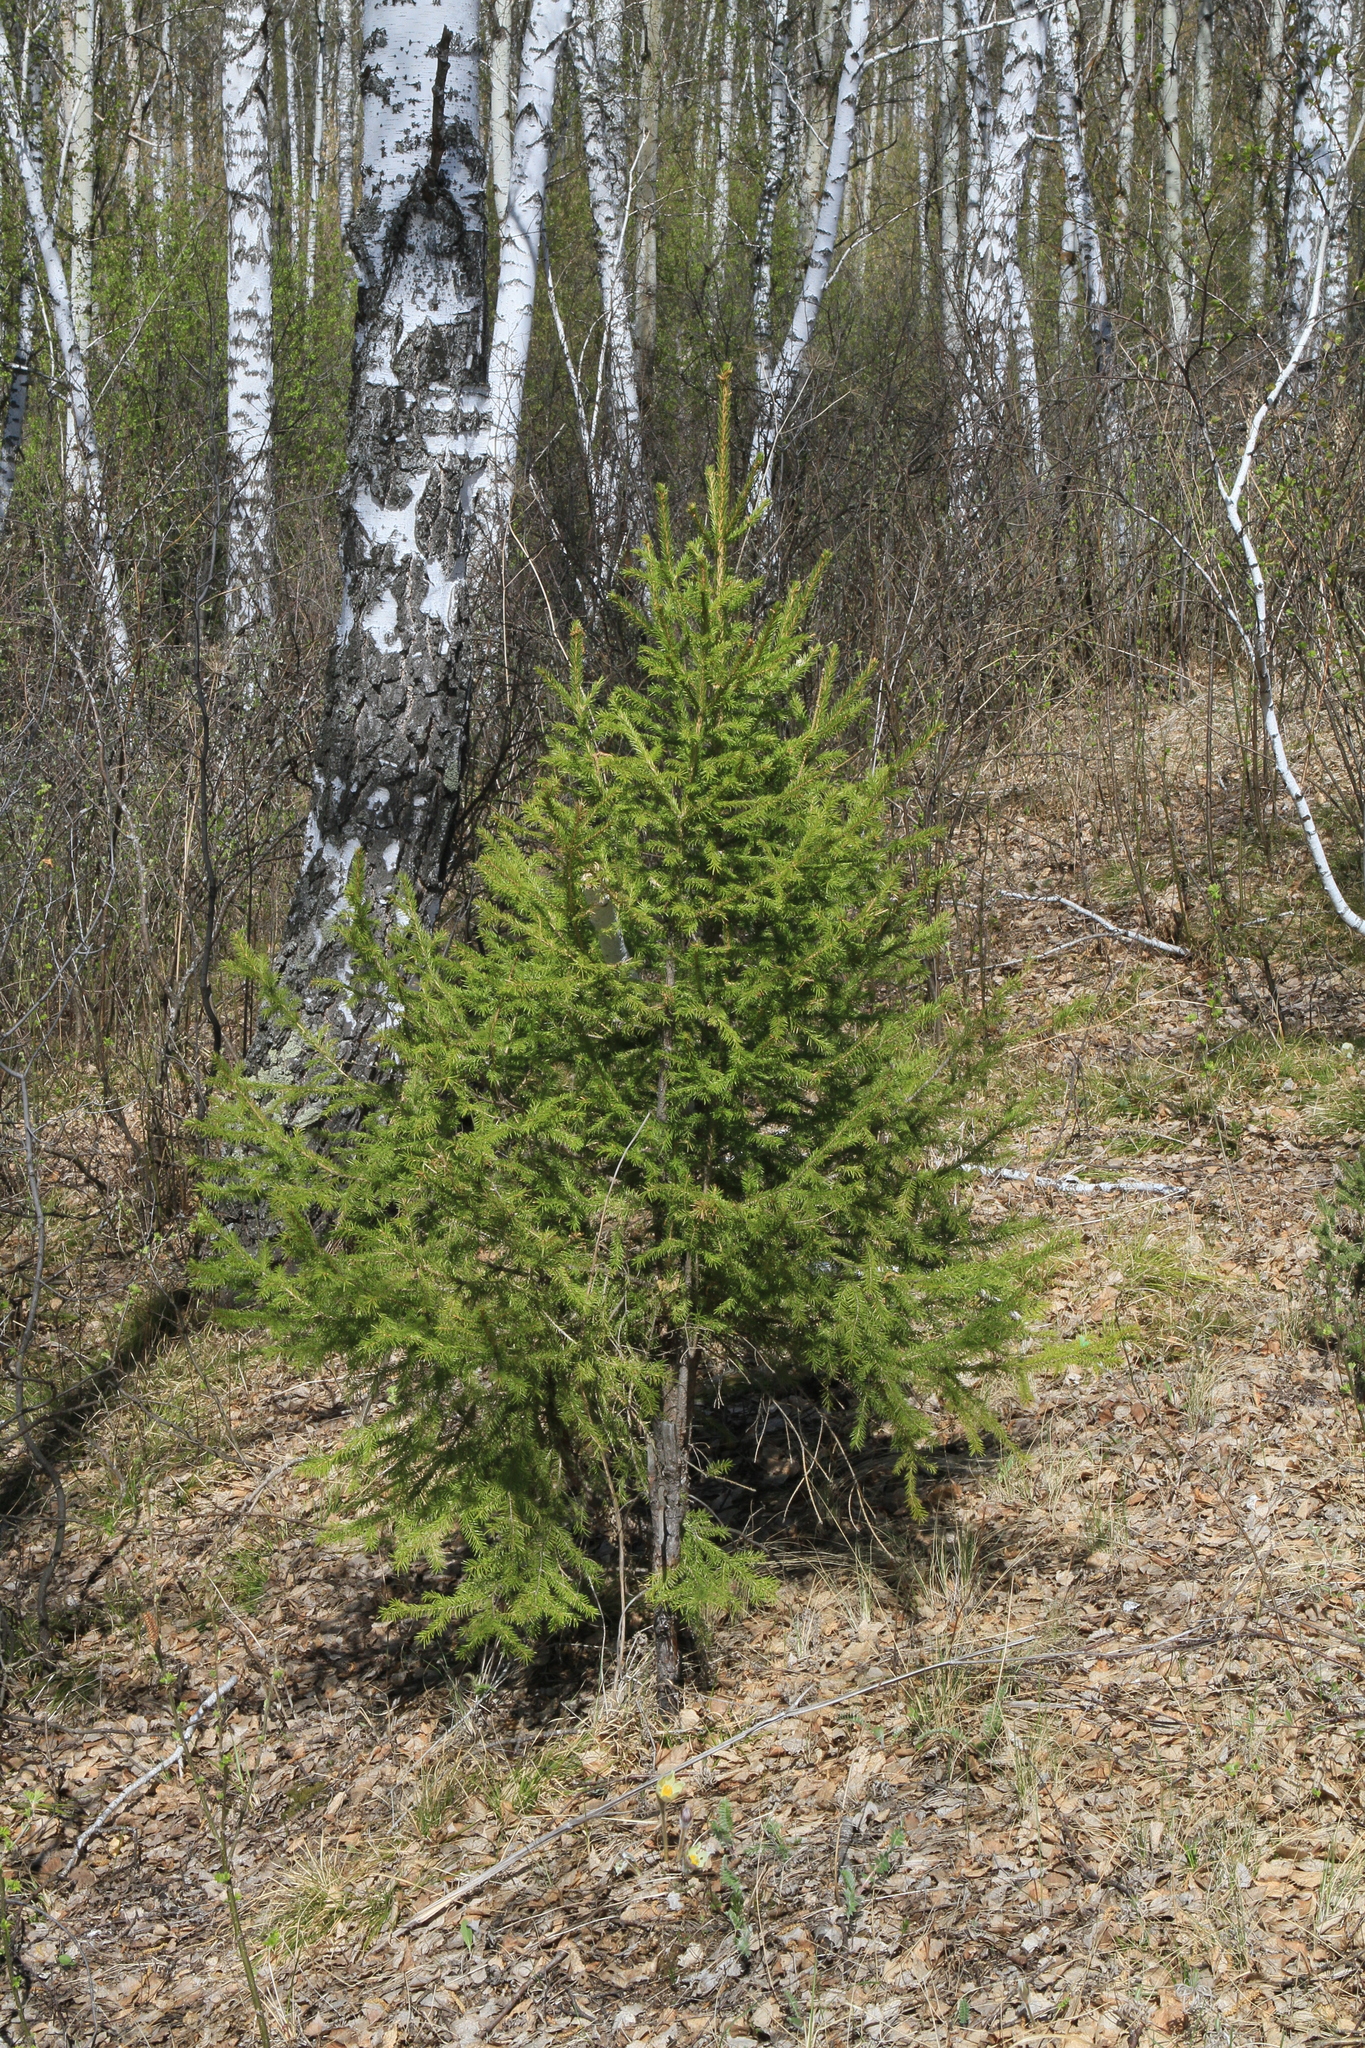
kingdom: Plantae
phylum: Tracheophyta
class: Pinopsida
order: Pinales
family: Pinaceae
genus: Picea
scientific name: Picea obovata
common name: Siberian spruce
